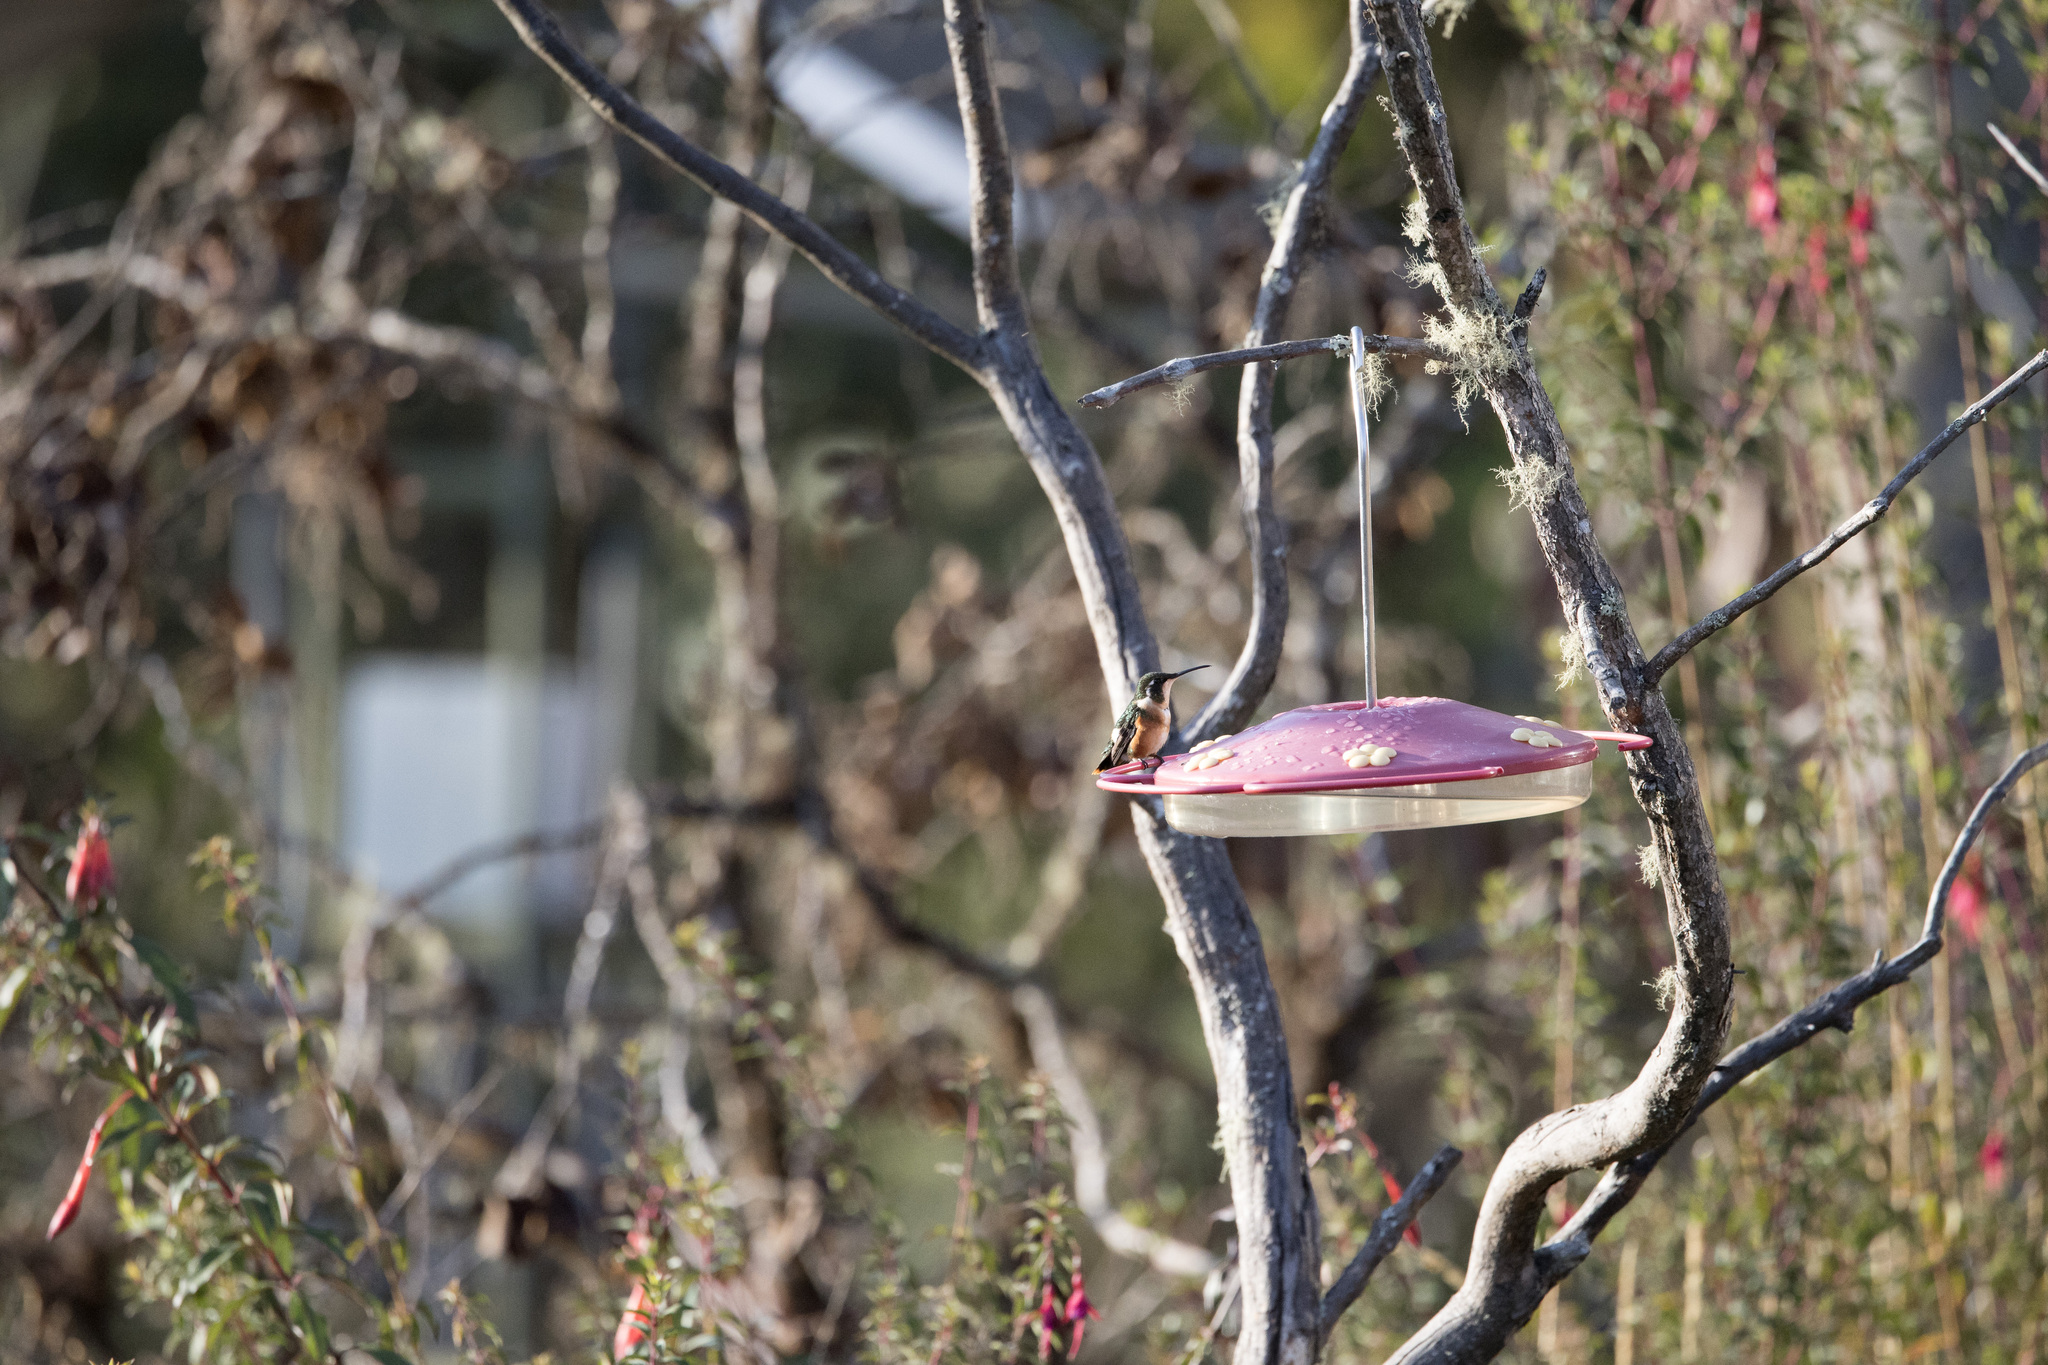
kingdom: Animalia
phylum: Chordata
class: Aves
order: Apodiformes
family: Trochilidae
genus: Chaetocercus
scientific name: Chaetocercus mulsant
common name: White-bellied woodstar
